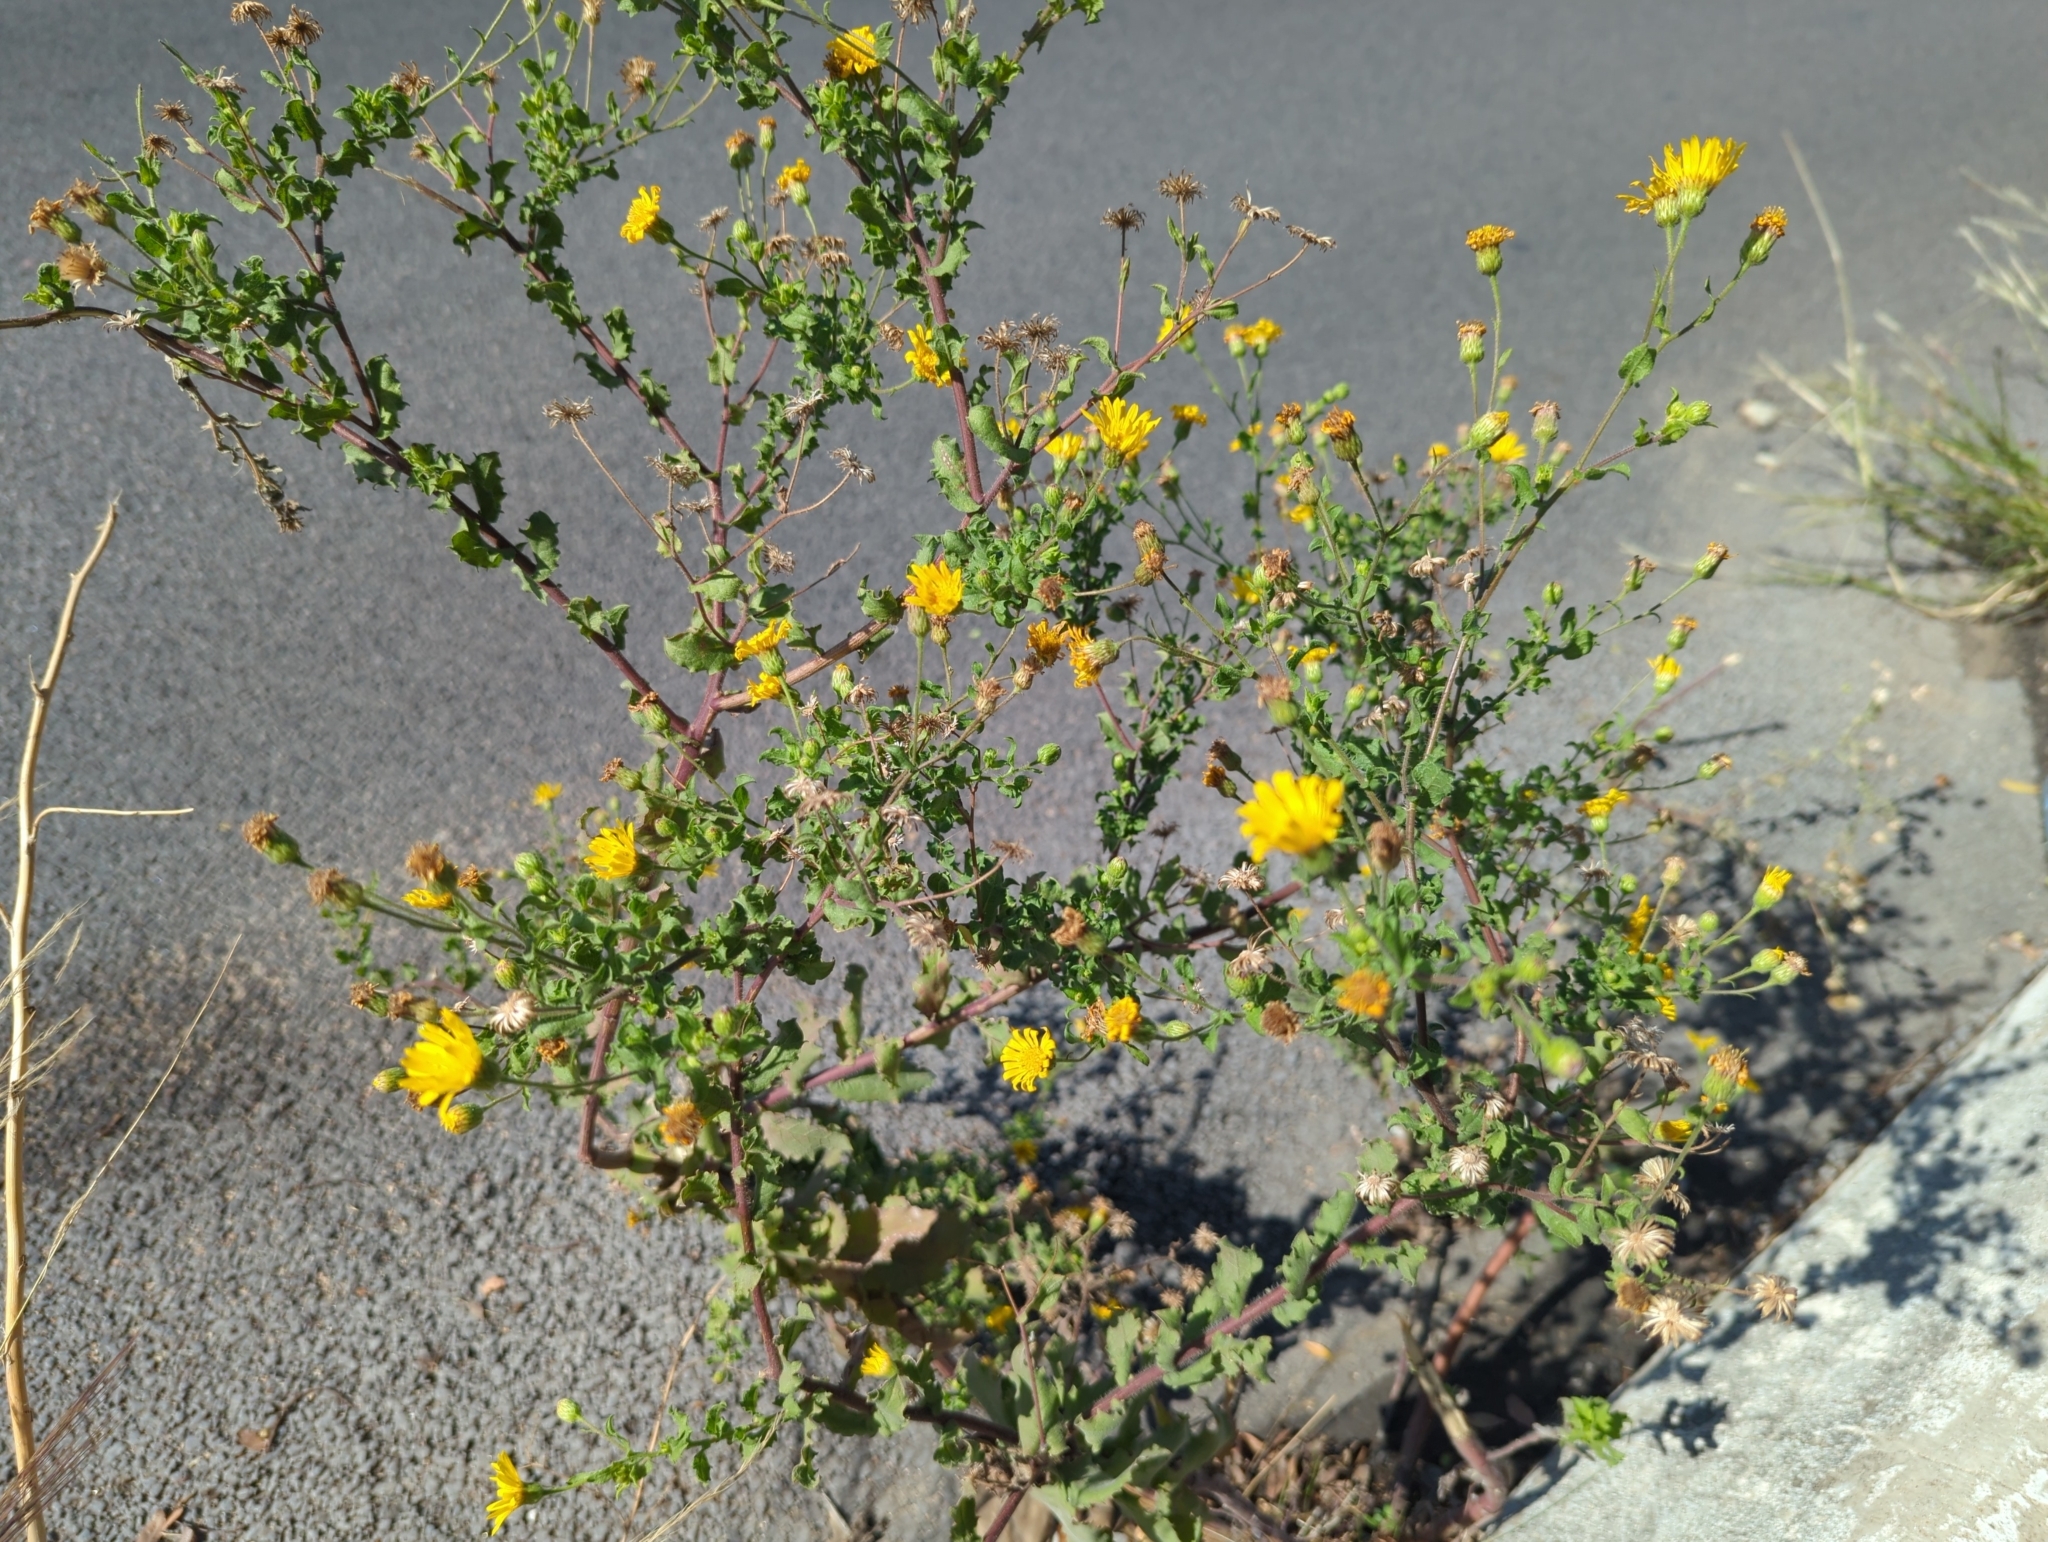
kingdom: Plantae
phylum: Tracheophyta
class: Magnoliopsida
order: Asterales
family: Asteraceae
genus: Heterotheca
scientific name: Heterotheca subaxillaris
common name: Camphorweed
